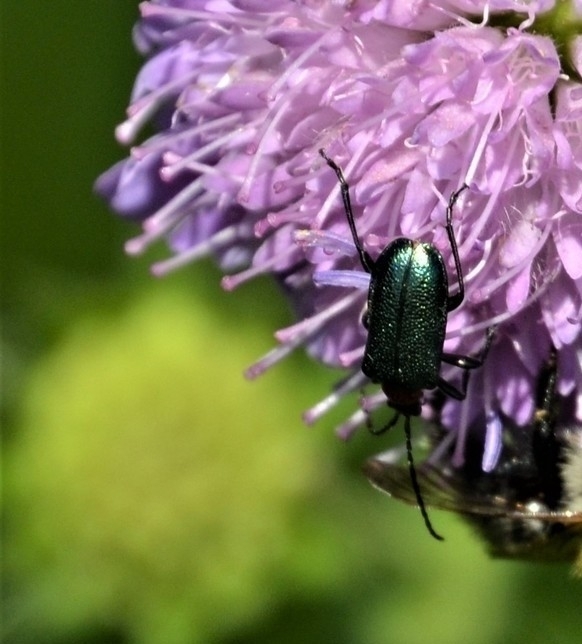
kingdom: Animalia
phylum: Arthropoda
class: Insecta
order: Coleoptera
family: Cerambycidae
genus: Gaurotes
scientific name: Gaurotes virginea
